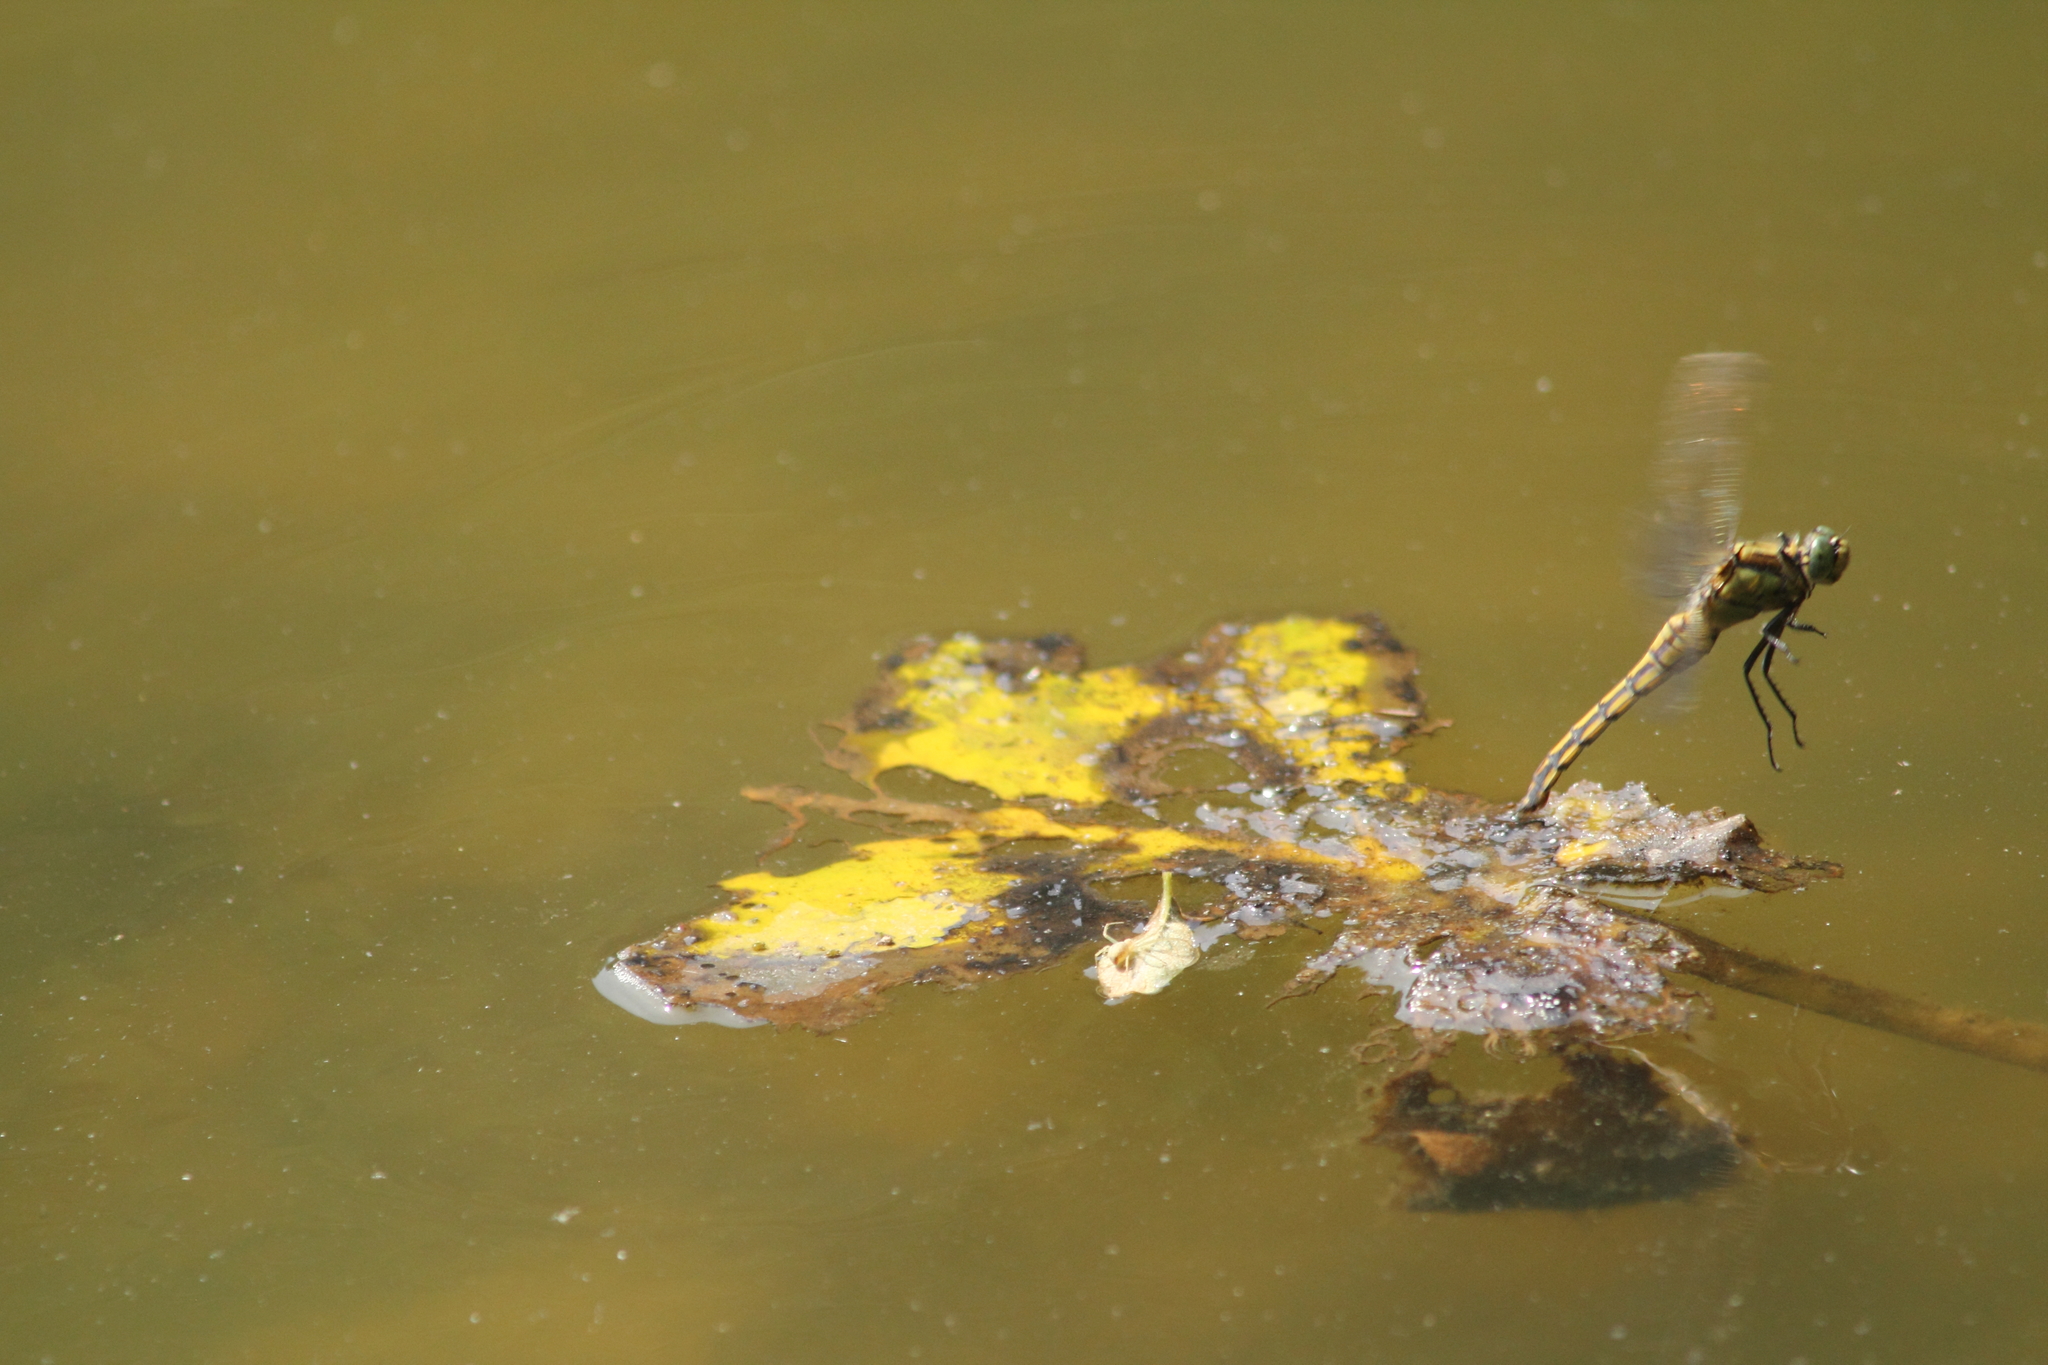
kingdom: Animalia
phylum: Arthropoda
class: Insecta
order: Odonata
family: Libellulidae
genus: Orthetrum
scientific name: Orthetrum cancellatum
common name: Black-tailed skimmer
